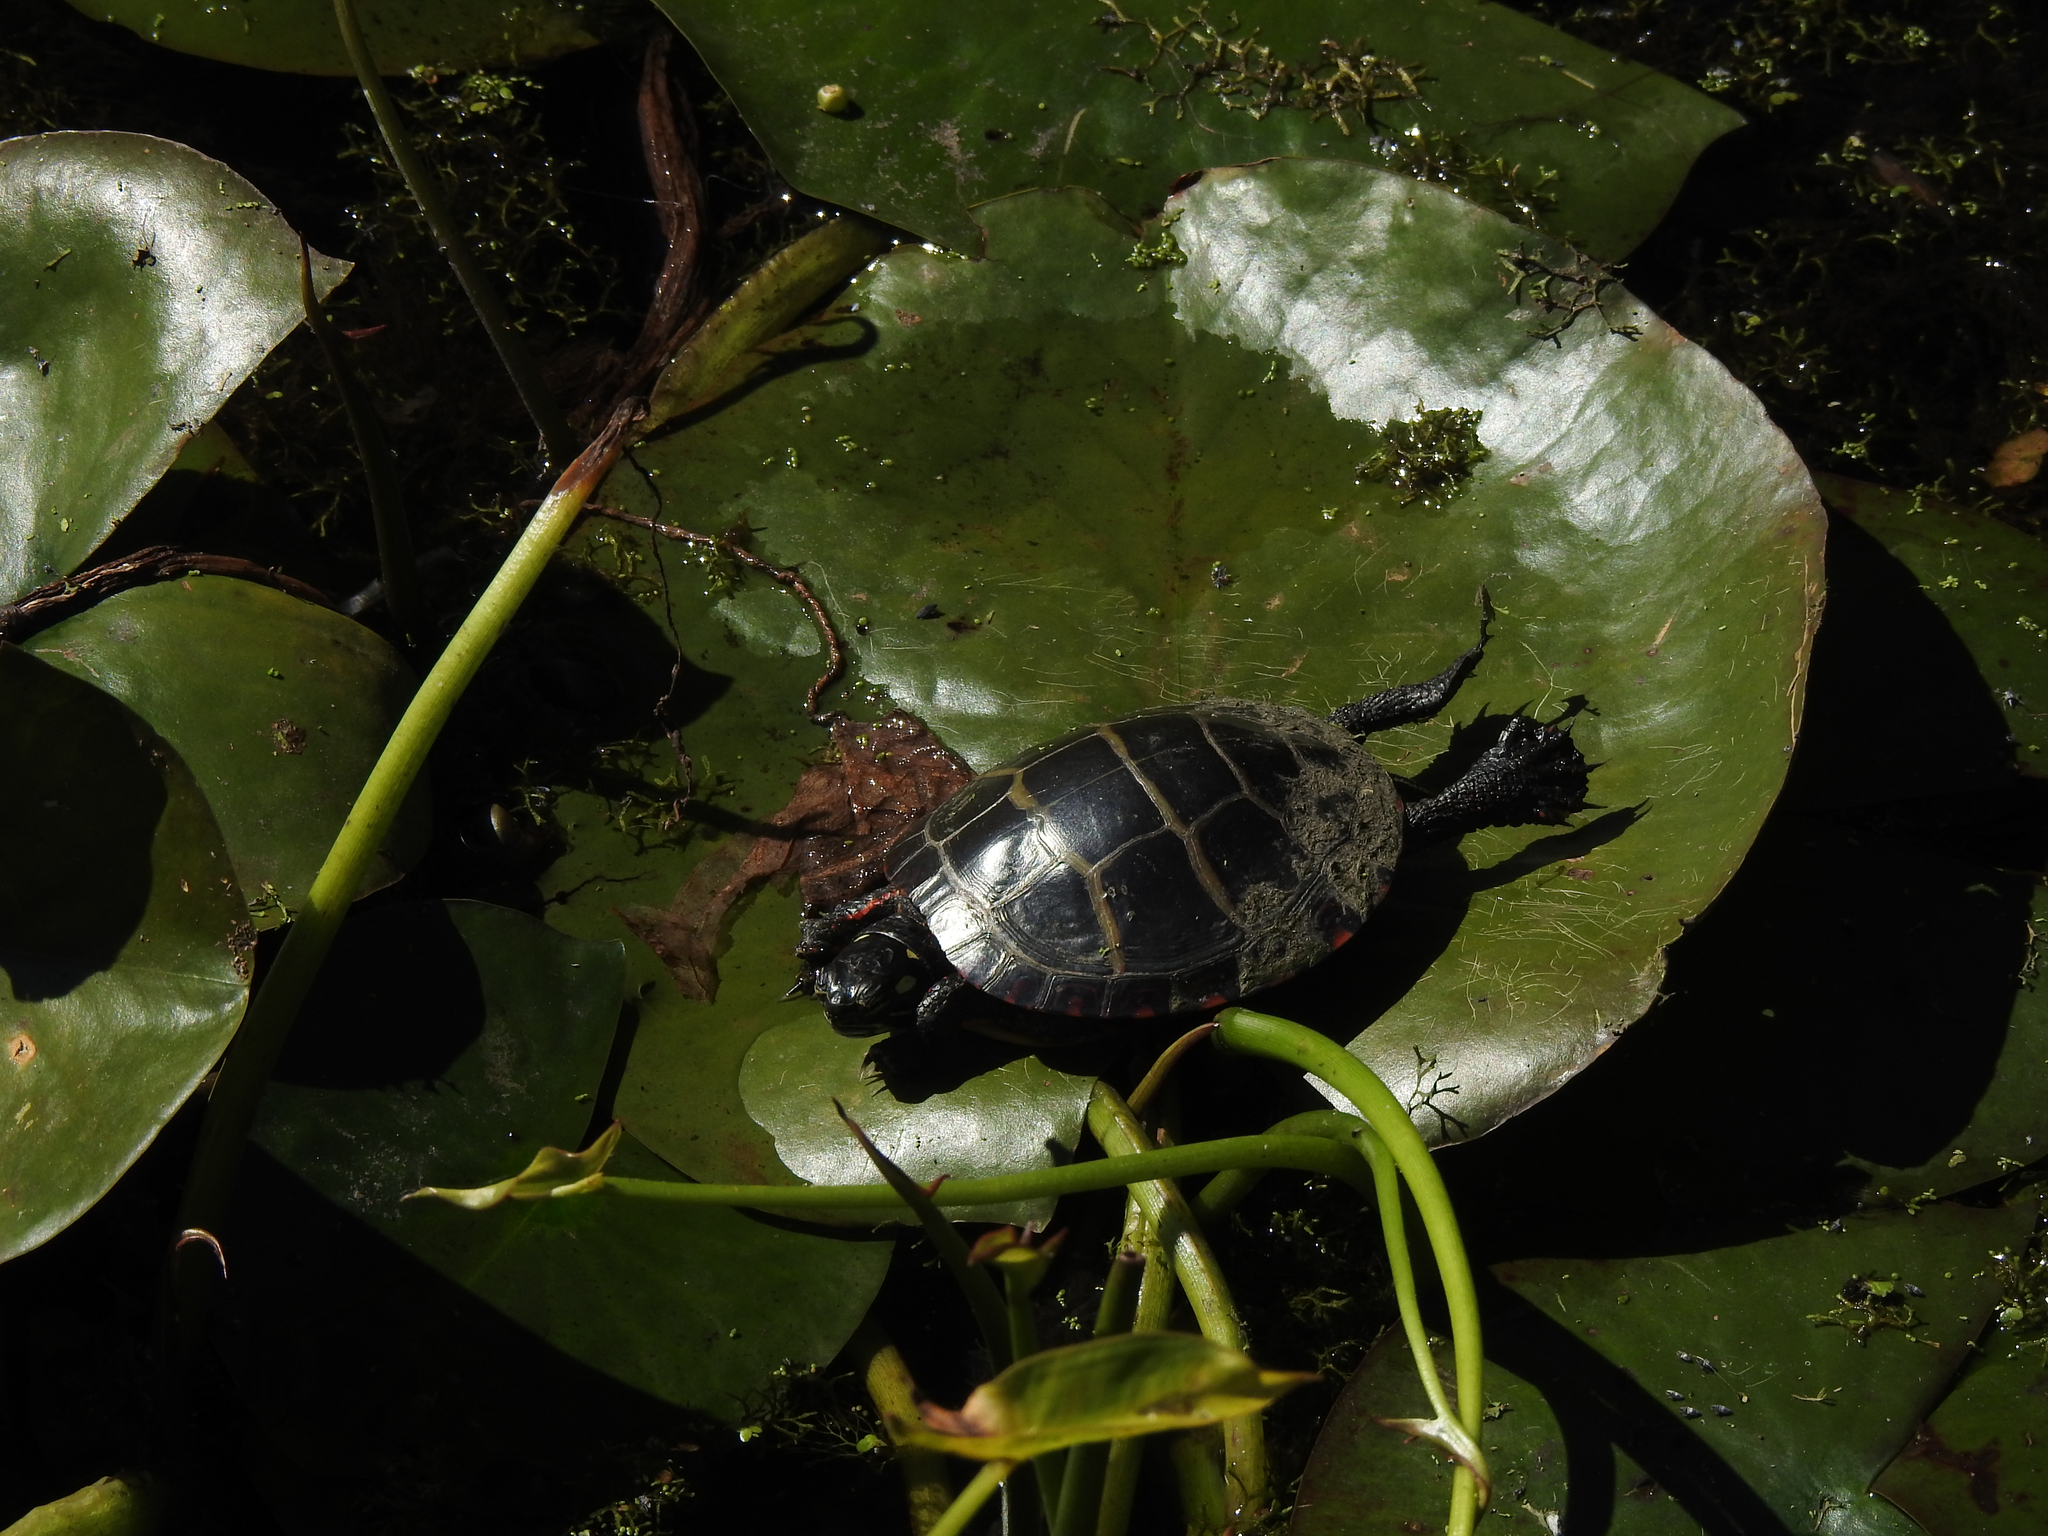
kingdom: Animalia
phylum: Chordata
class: Testudines
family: Emydidae
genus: Chrysemys
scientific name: Chrysemys picta
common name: Painted turtle
